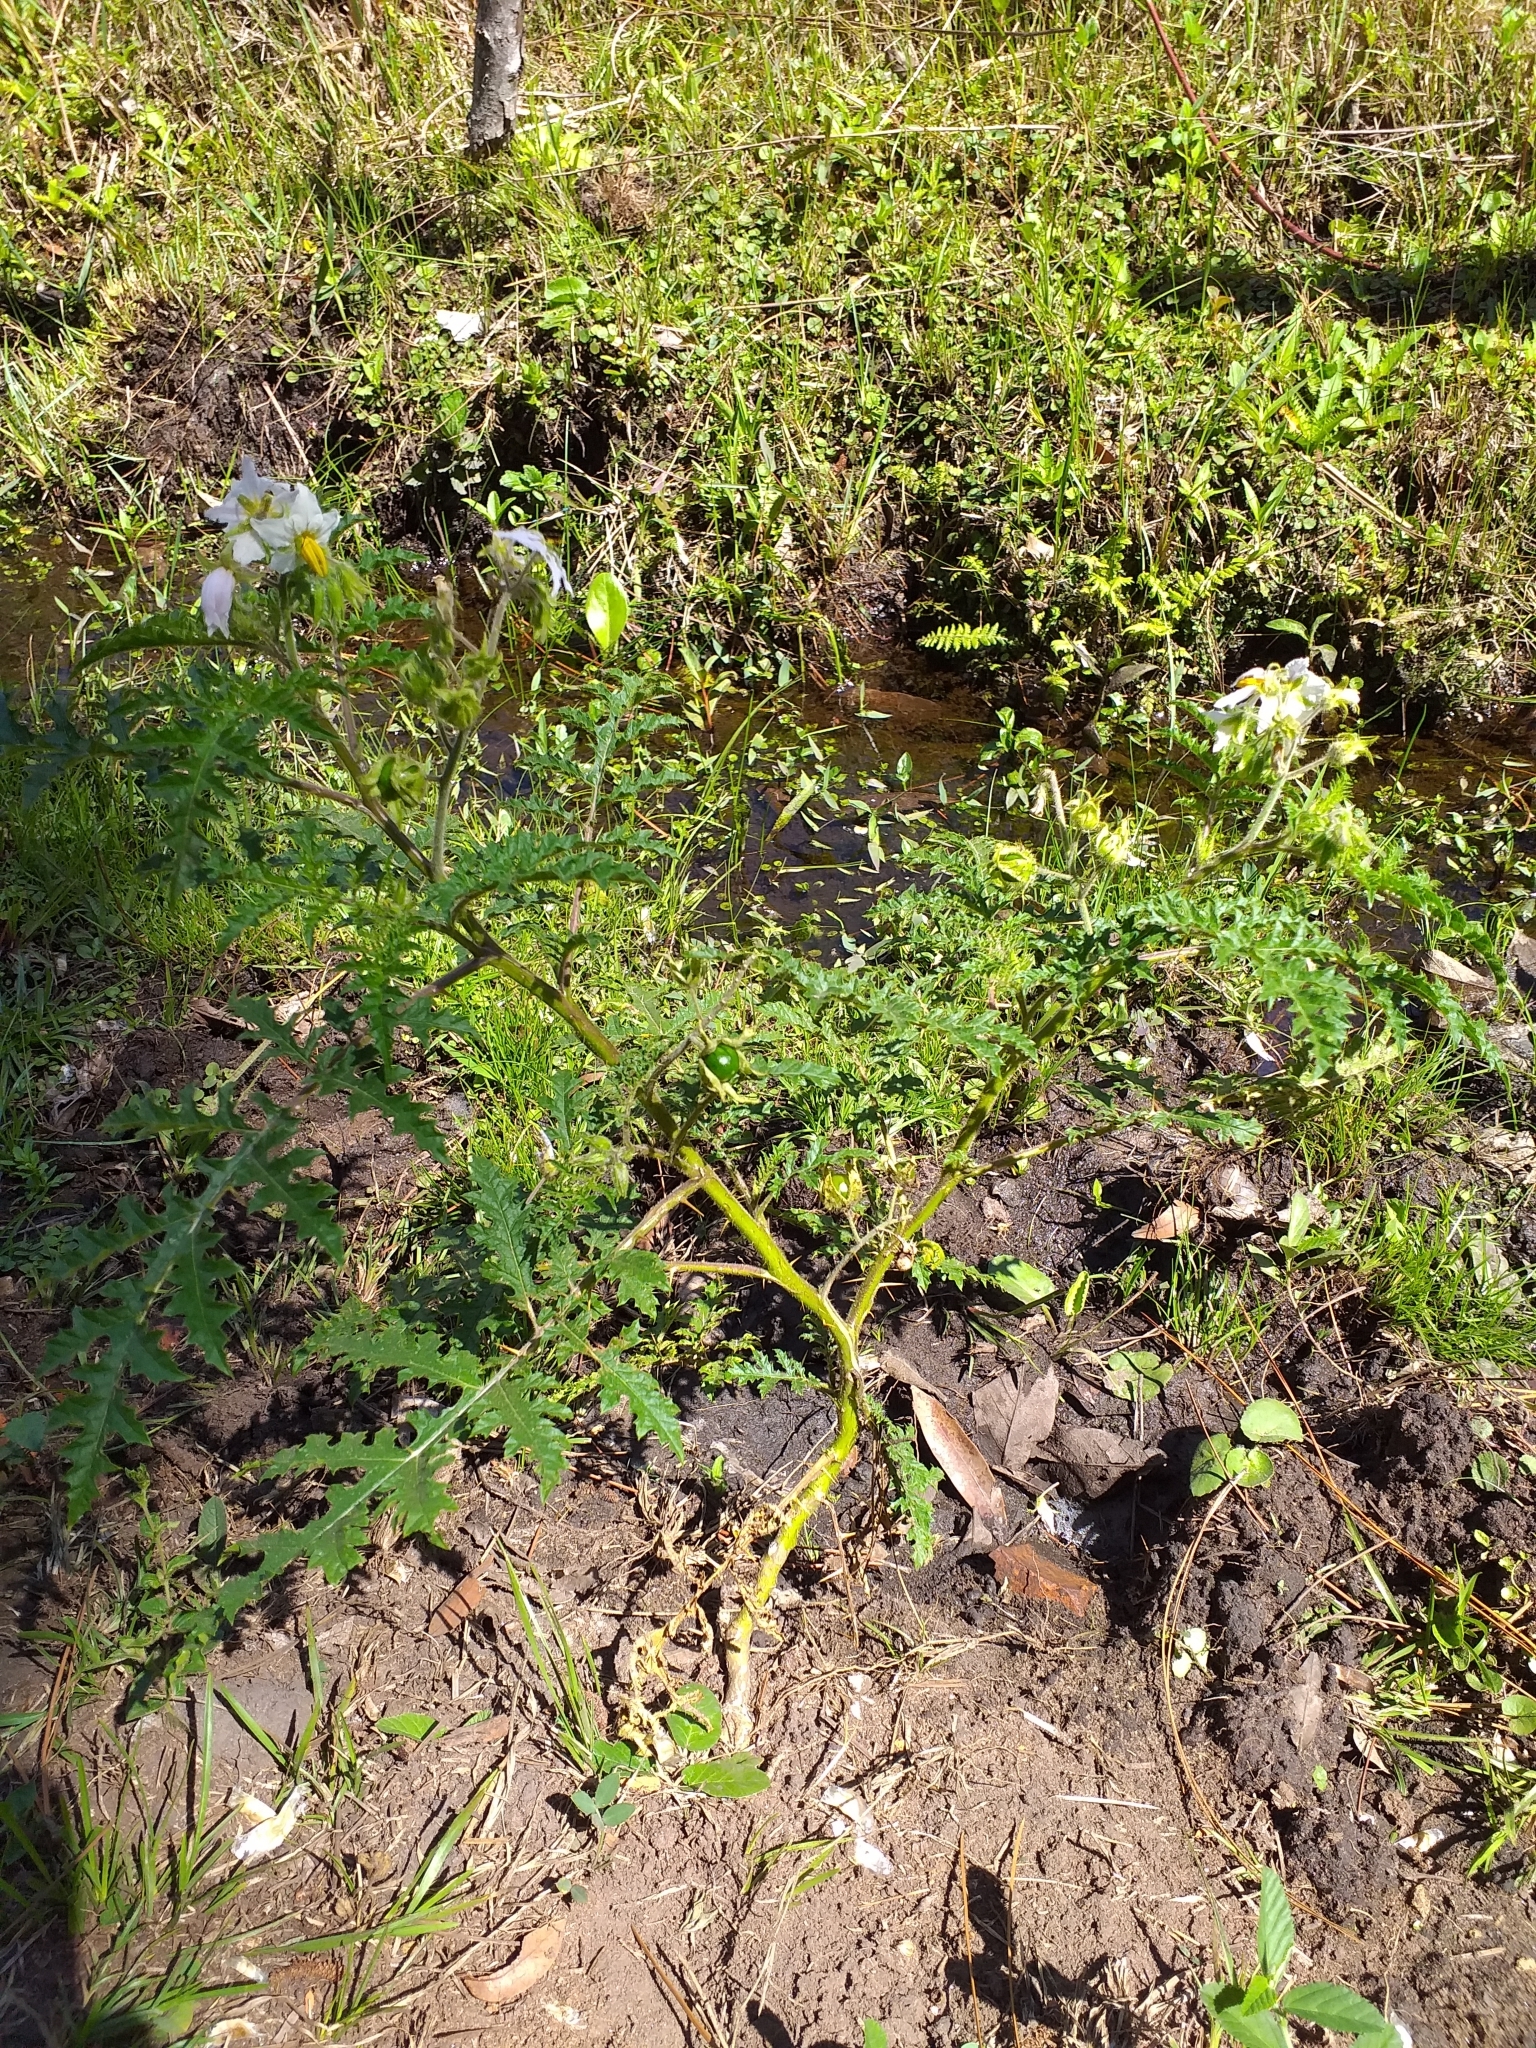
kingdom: Plantae
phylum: Tracheophyta
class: Magnoliopsida
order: Solanales
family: Solanaceae
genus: Solanum
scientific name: Solanum sisymbriifolium
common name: Red buffalo-bur
